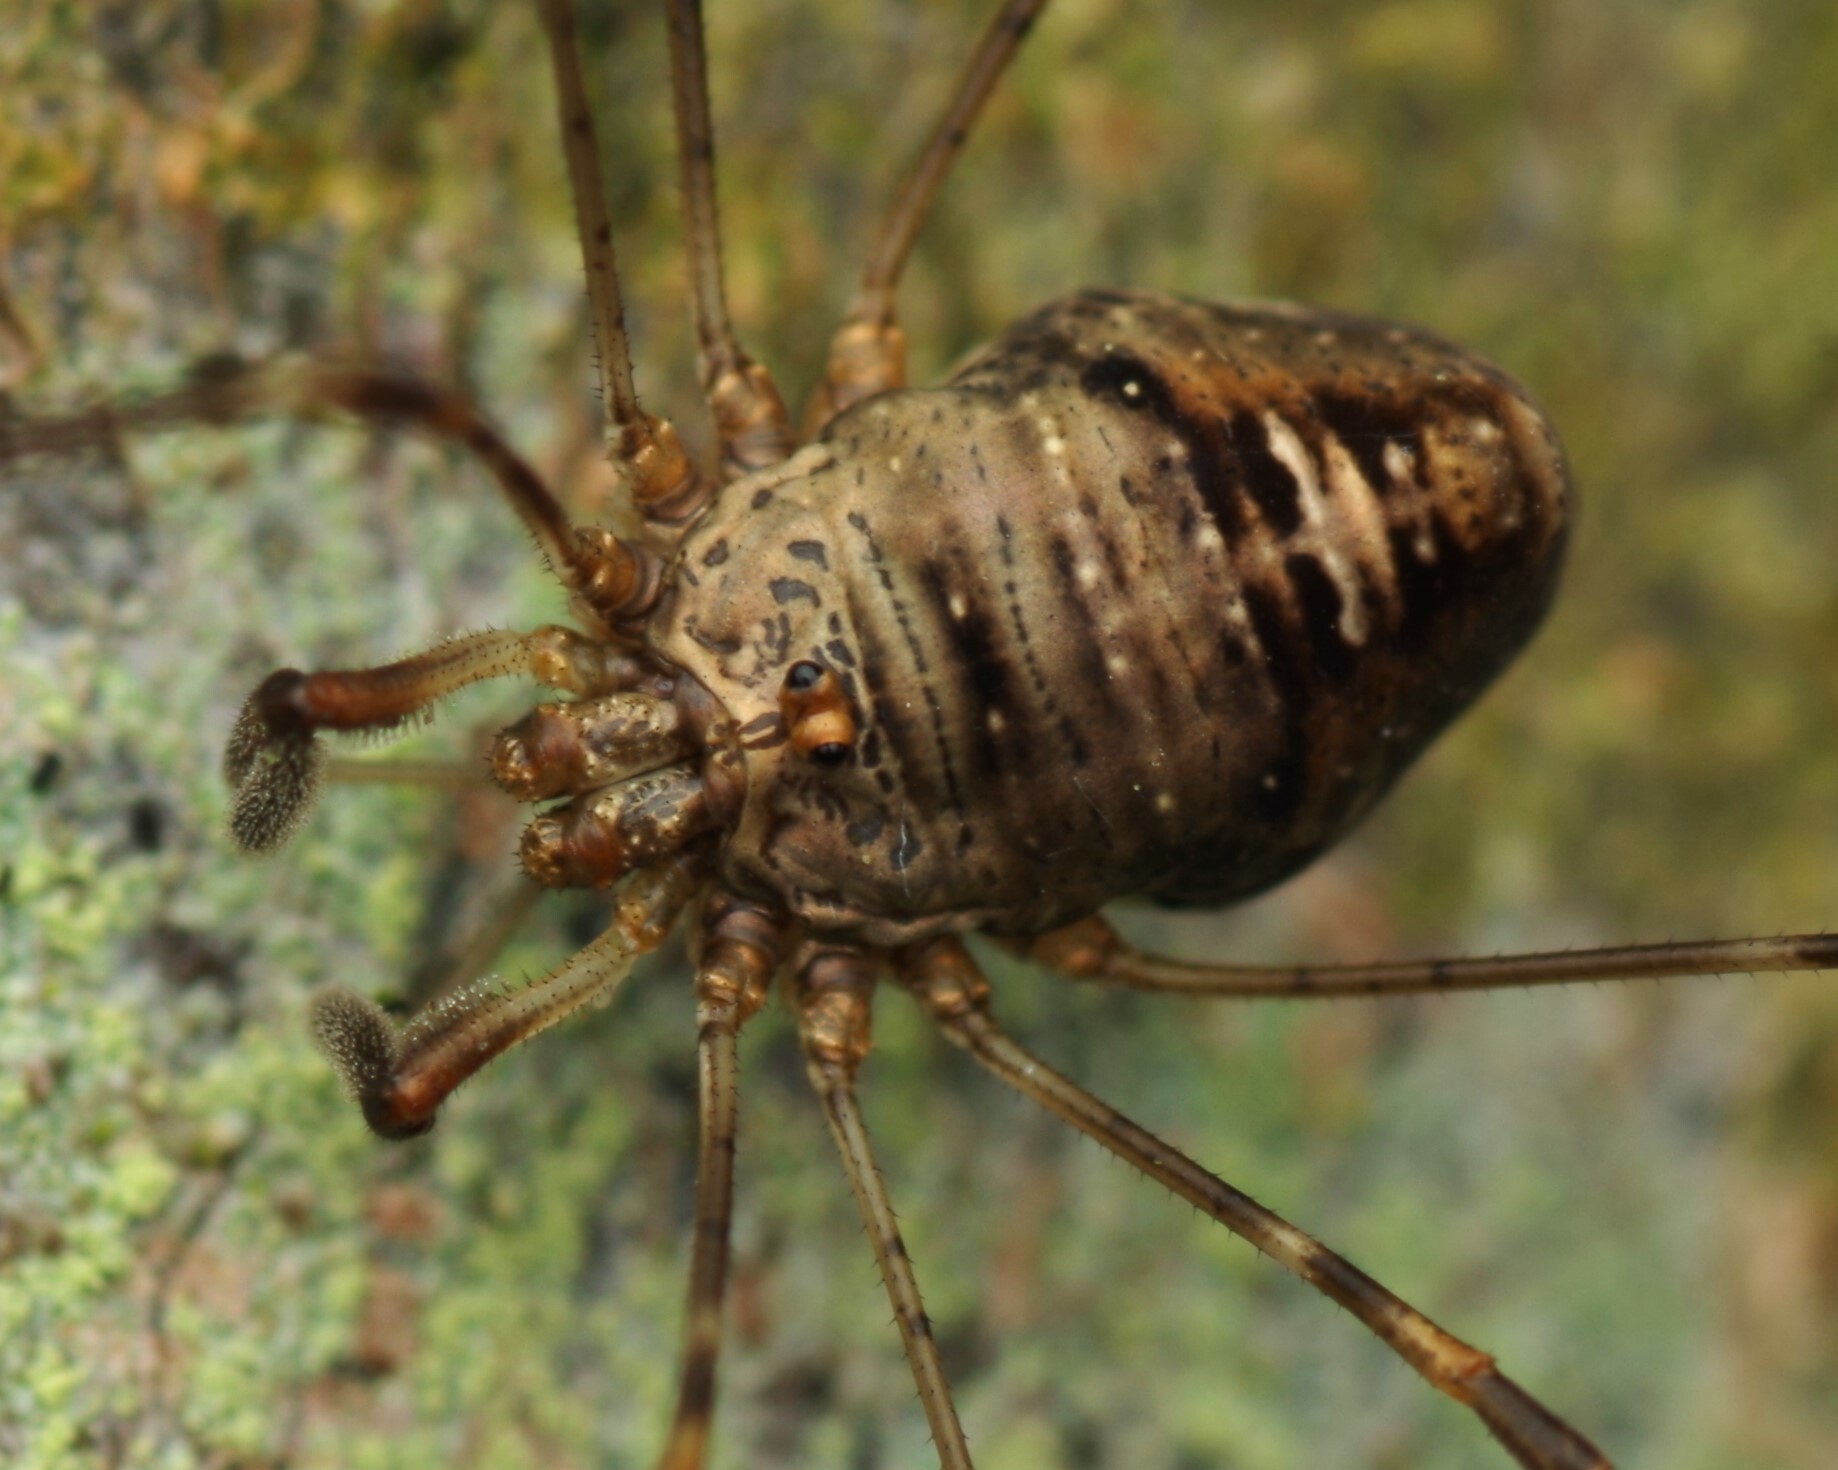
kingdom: Animalia
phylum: Arthropoda
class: Arachnida
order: Opiliones
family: Phalangiidae
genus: Dicranopalpus
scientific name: Dicranopalpus ramosus
